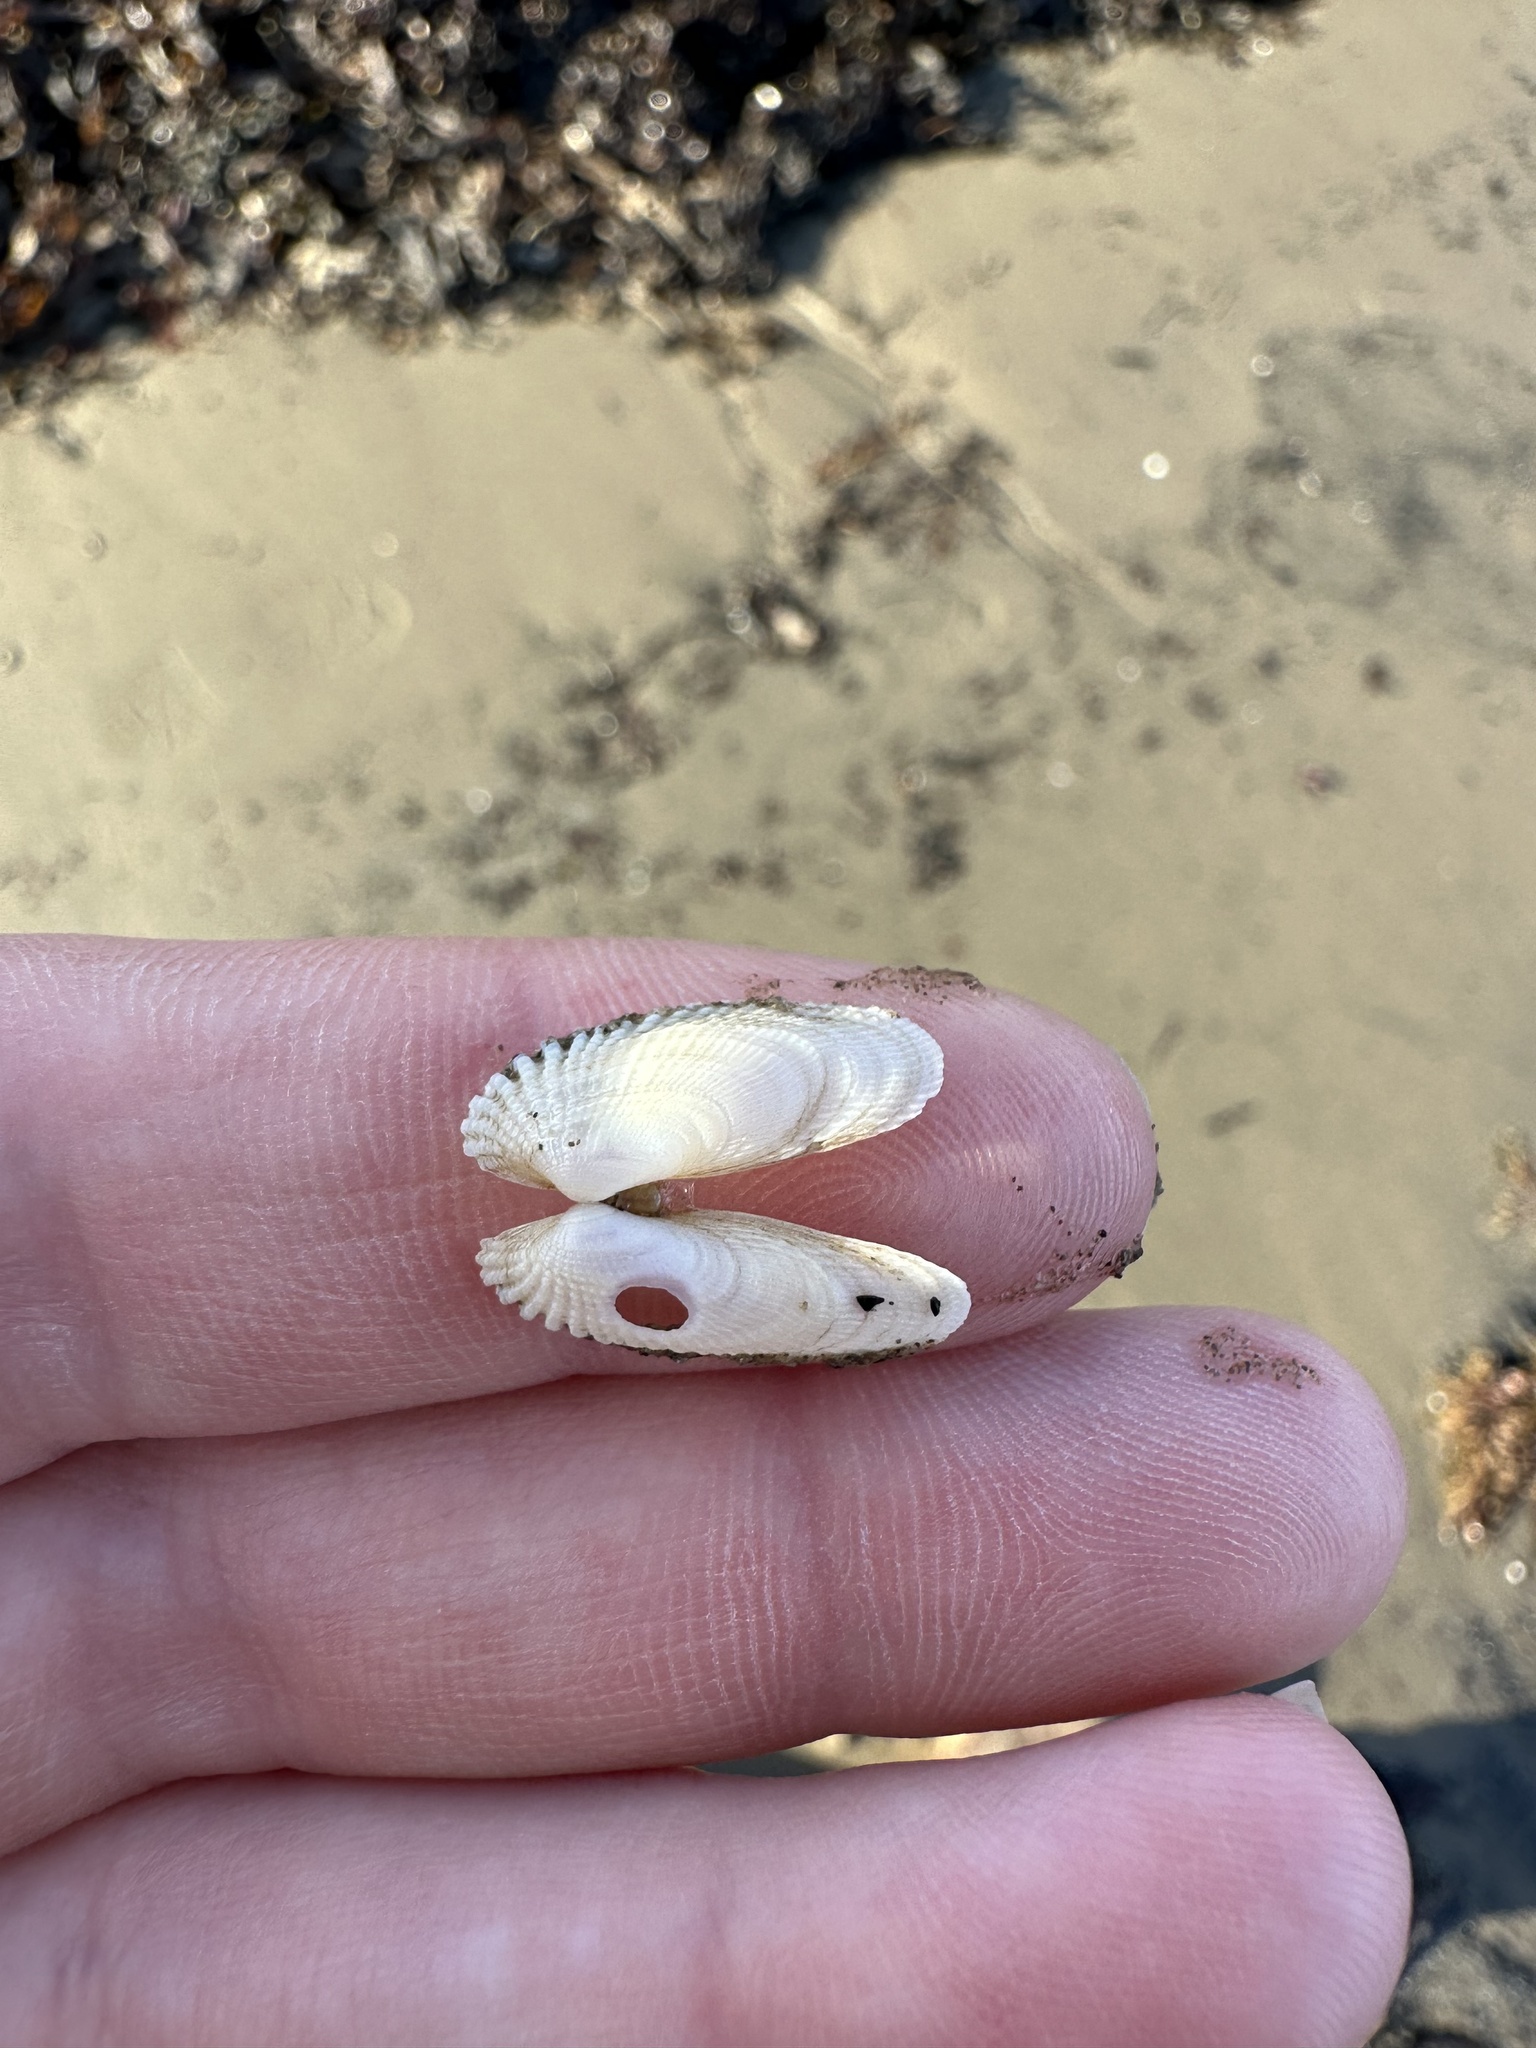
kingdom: Animalia
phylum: Mollusca
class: Bivalvia
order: Venerida
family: Veneridae
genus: Petricolaria
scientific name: Petricolaria pholadiformis
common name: American piddock
